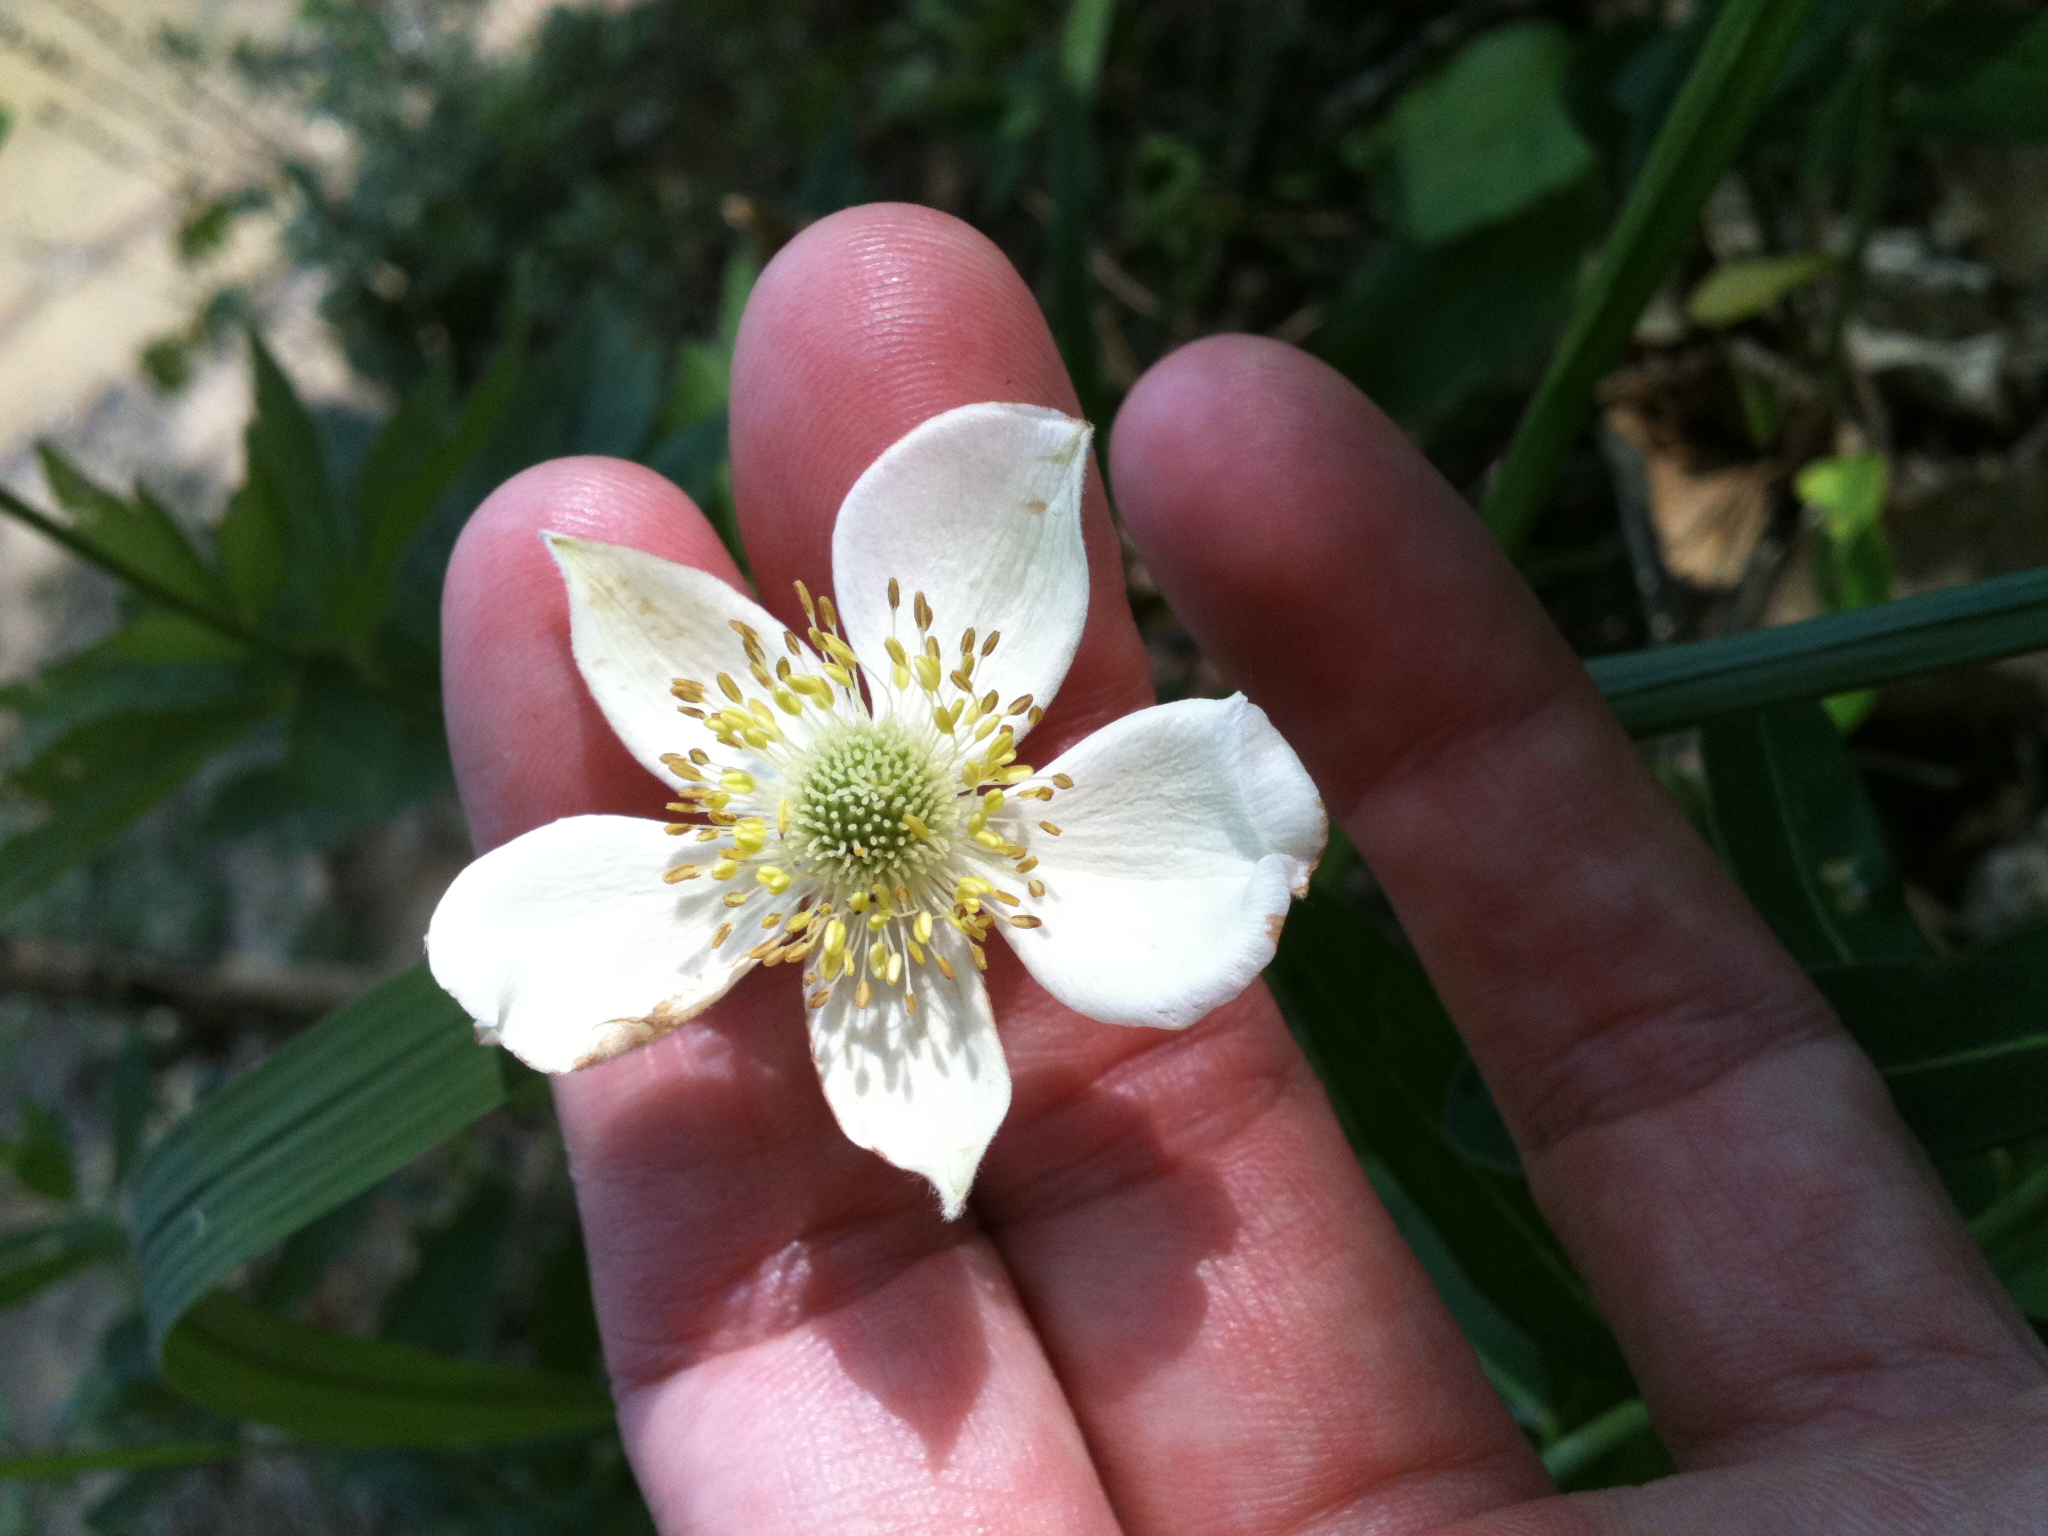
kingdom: Plantae
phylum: Tracheophyta
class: Magnoliopsida
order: Ranunculales
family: Ranunculaceae
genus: Anemone
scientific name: Anemone virginiana
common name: Tall anemone
